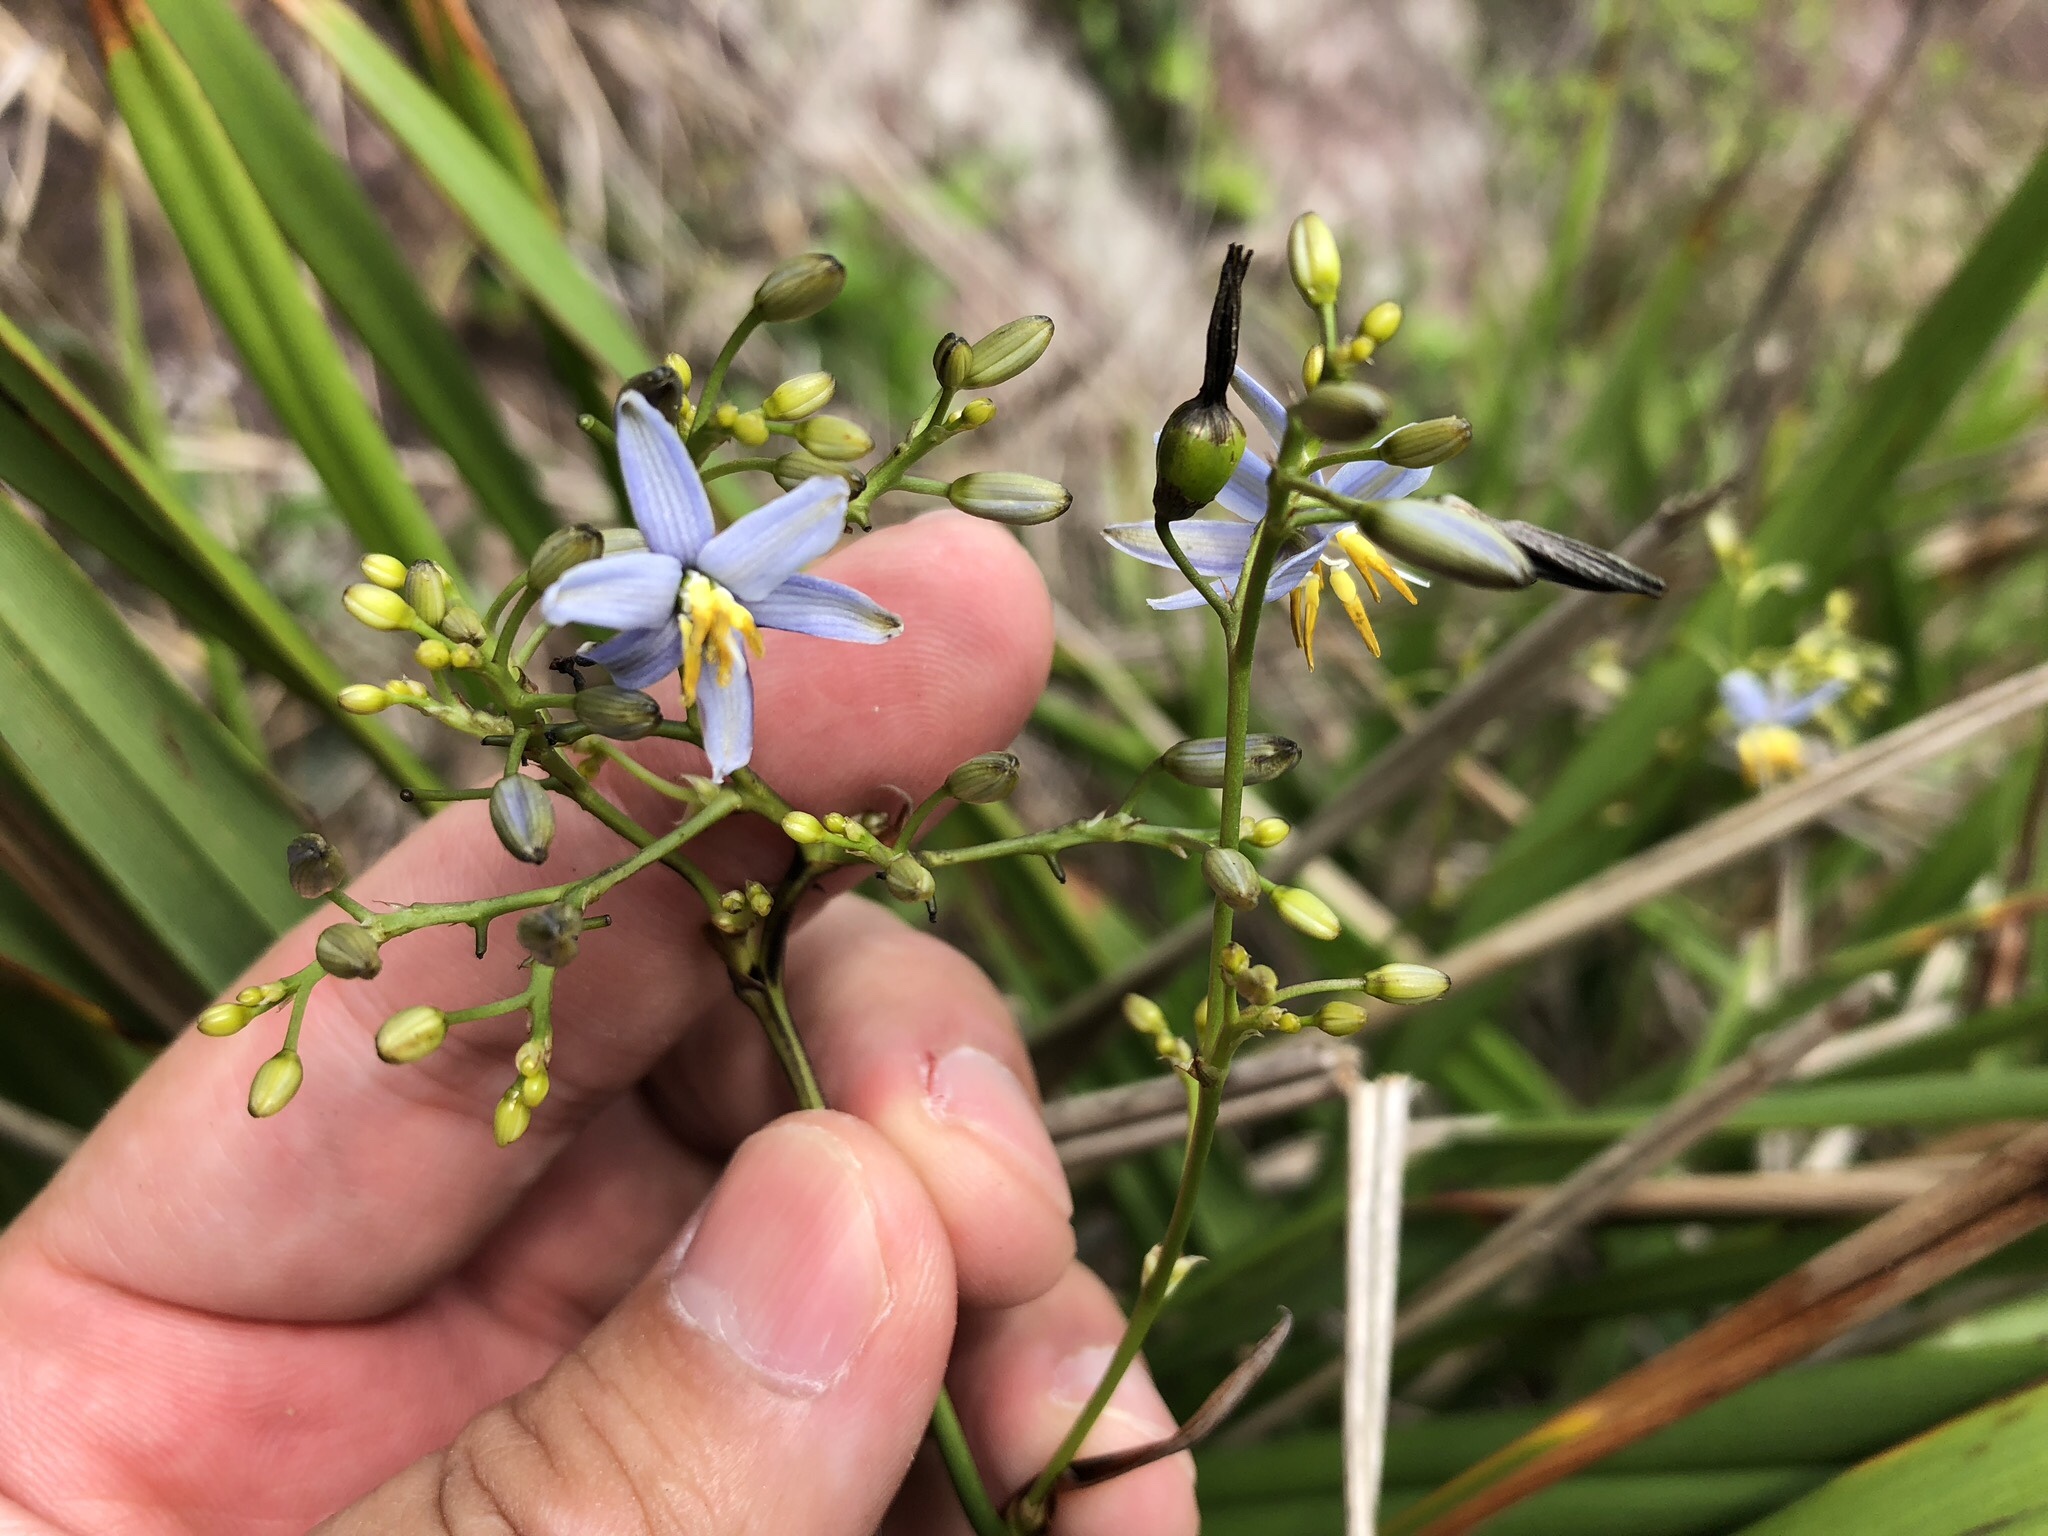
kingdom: Plantae
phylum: Tracheophyta
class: Liliopsida
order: Asparagales
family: Asphodelaceae
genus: Dianella
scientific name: Dianella ensifolia
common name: New zealand lilyplant
